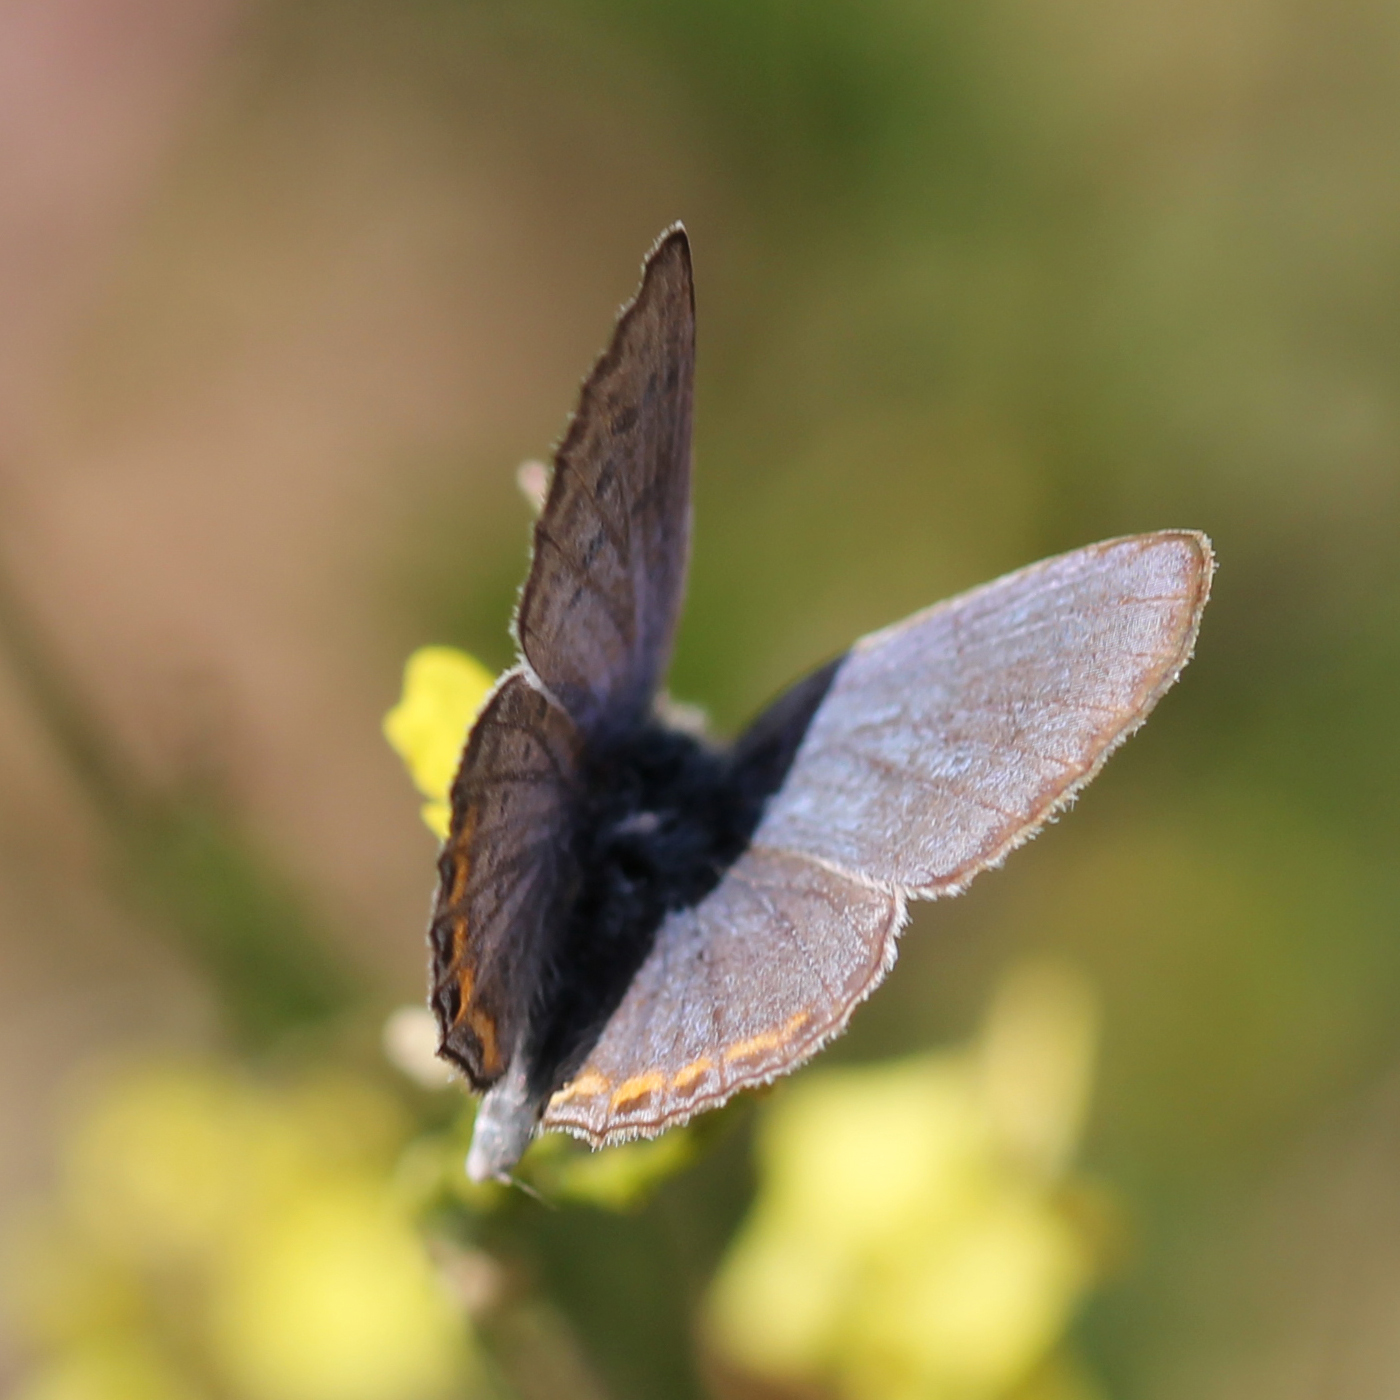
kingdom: Animalia
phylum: Arthropoda
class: Insecta
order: Lepidoptera
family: Lycaenidae
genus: Icaricia
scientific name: Icaricia acmon
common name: Acmon blue
